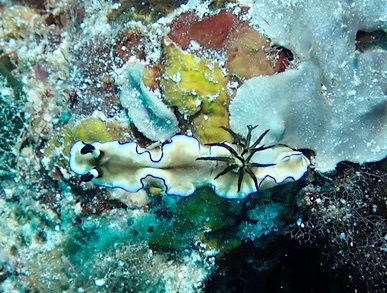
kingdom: Animalia
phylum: Mollusca
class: Gastropoda
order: Nudibranchia
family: Chromodorididae
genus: Doriprismatica
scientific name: Doriprismatica atromarginata
